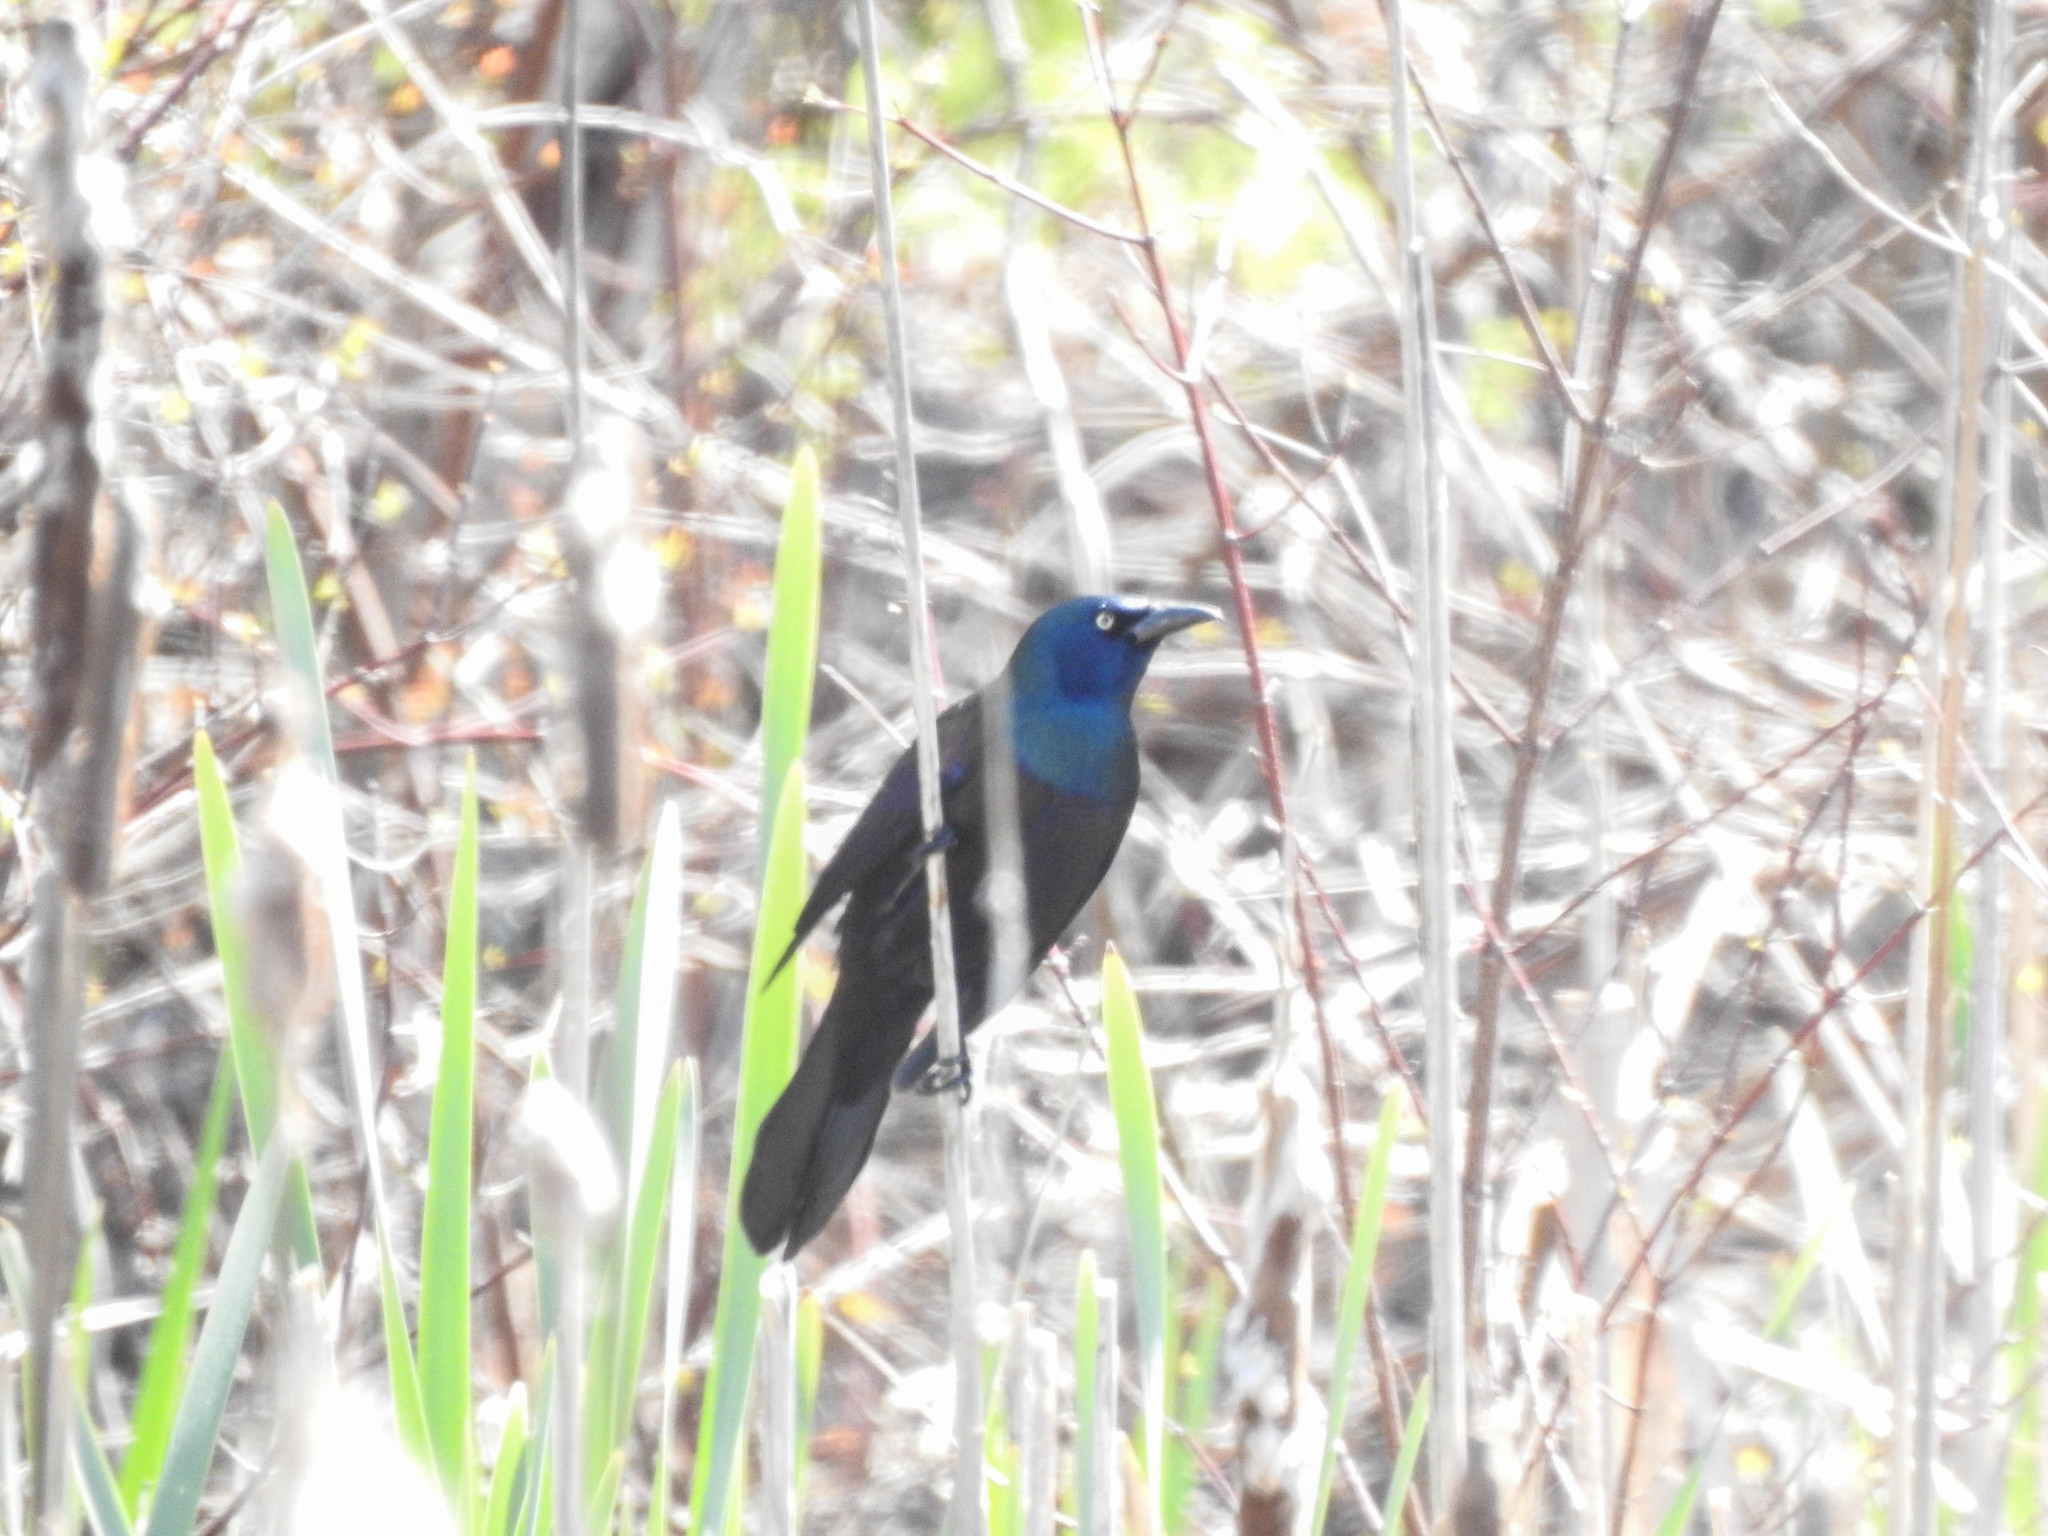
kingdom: Animalia
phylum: Chordata
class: Aves
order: Passeriformes
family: Icteridae
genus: Quiscalus
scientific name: Quiscalus quiscula
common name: Common grackle
